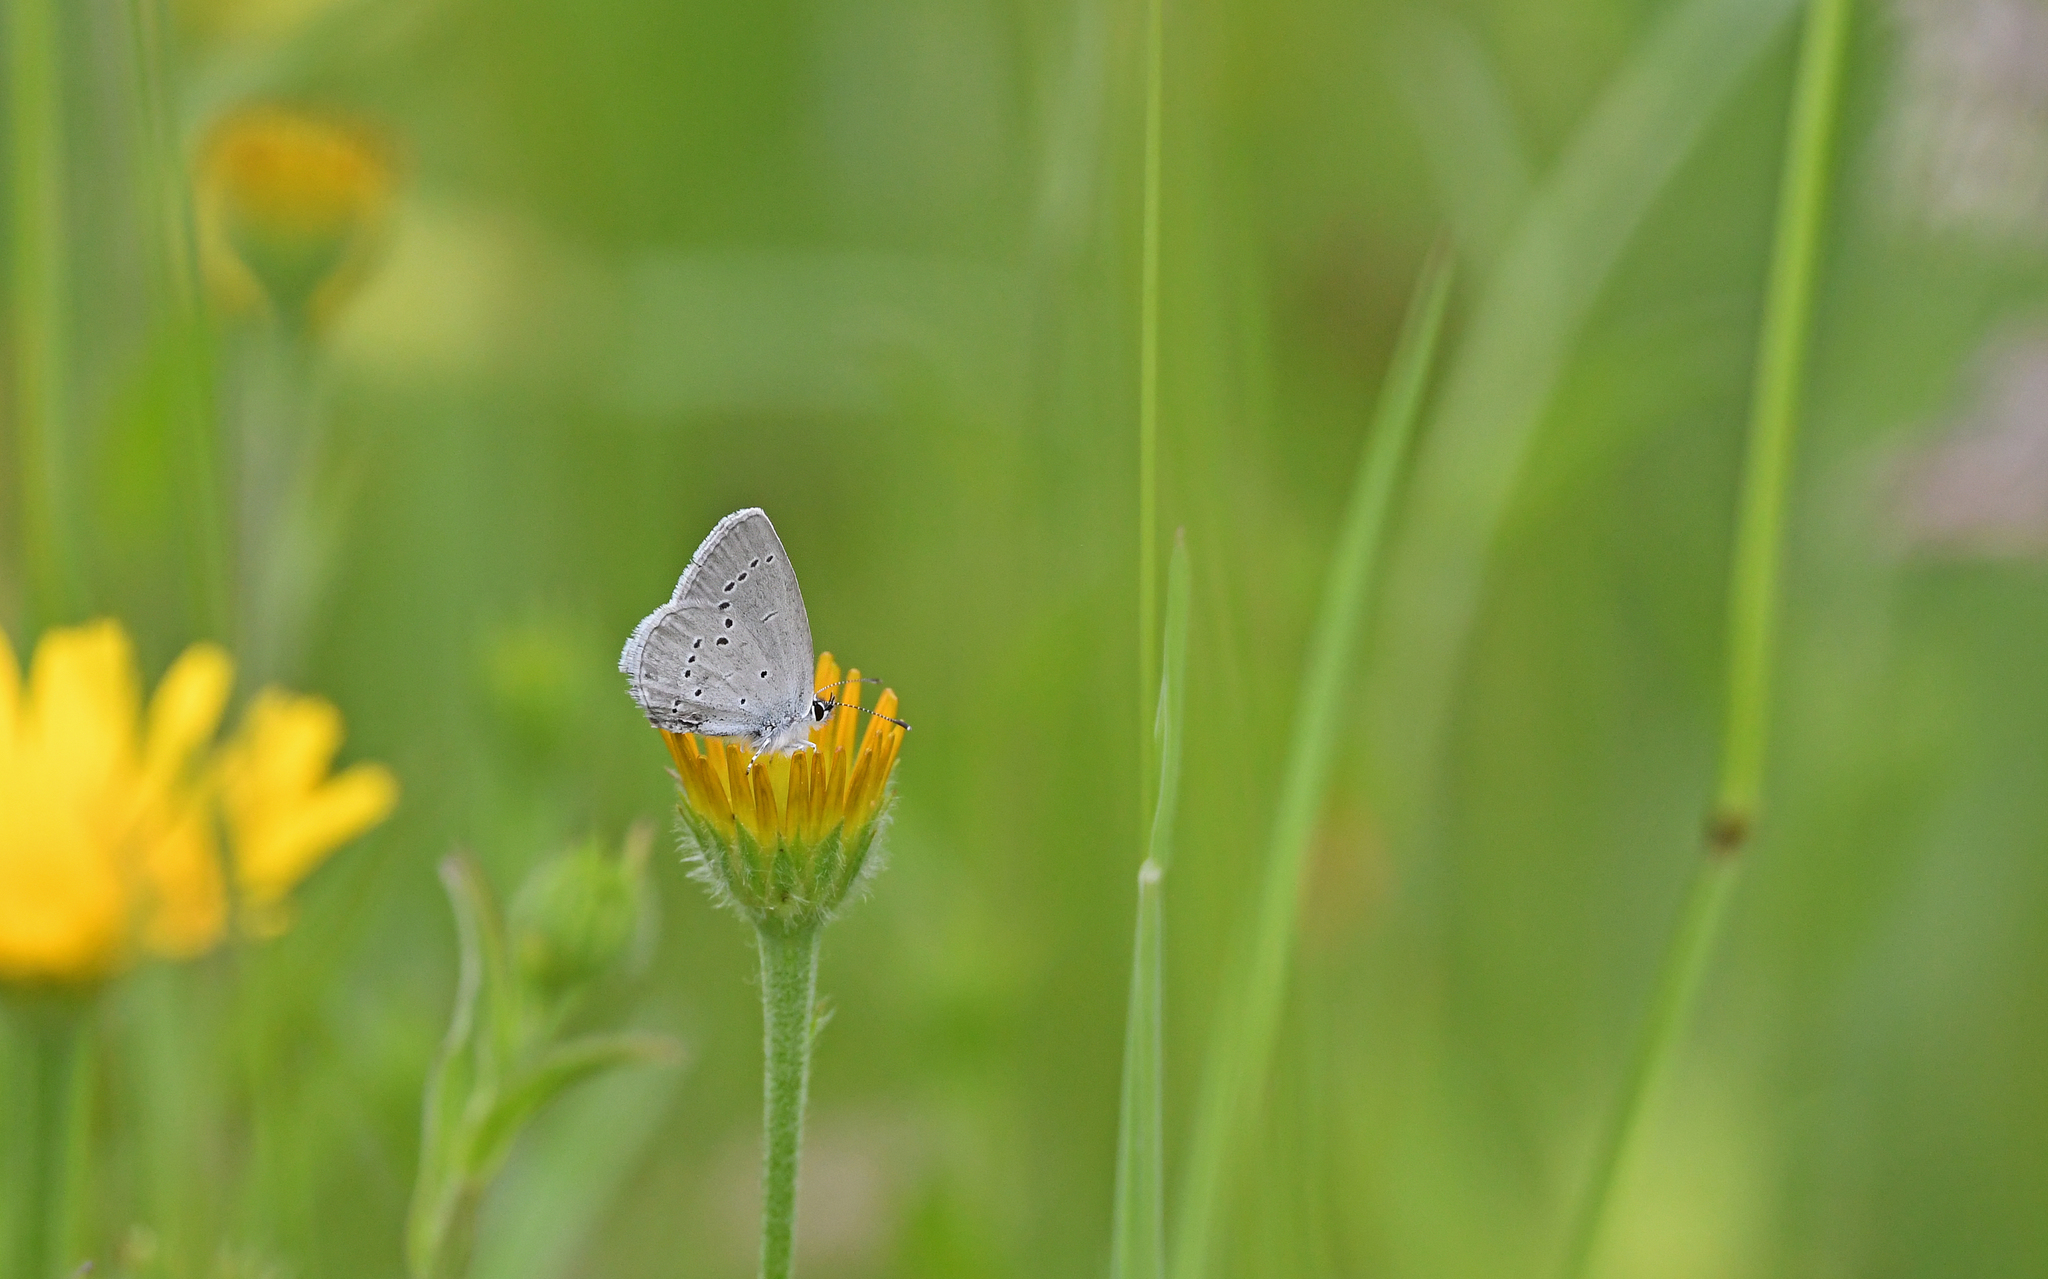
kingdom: Animalia
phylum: Arthropoda
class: Insecta
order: Lepidoptera
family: Lycaenidae
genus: Cupido
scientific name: Cupido minimus
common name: Small blue
